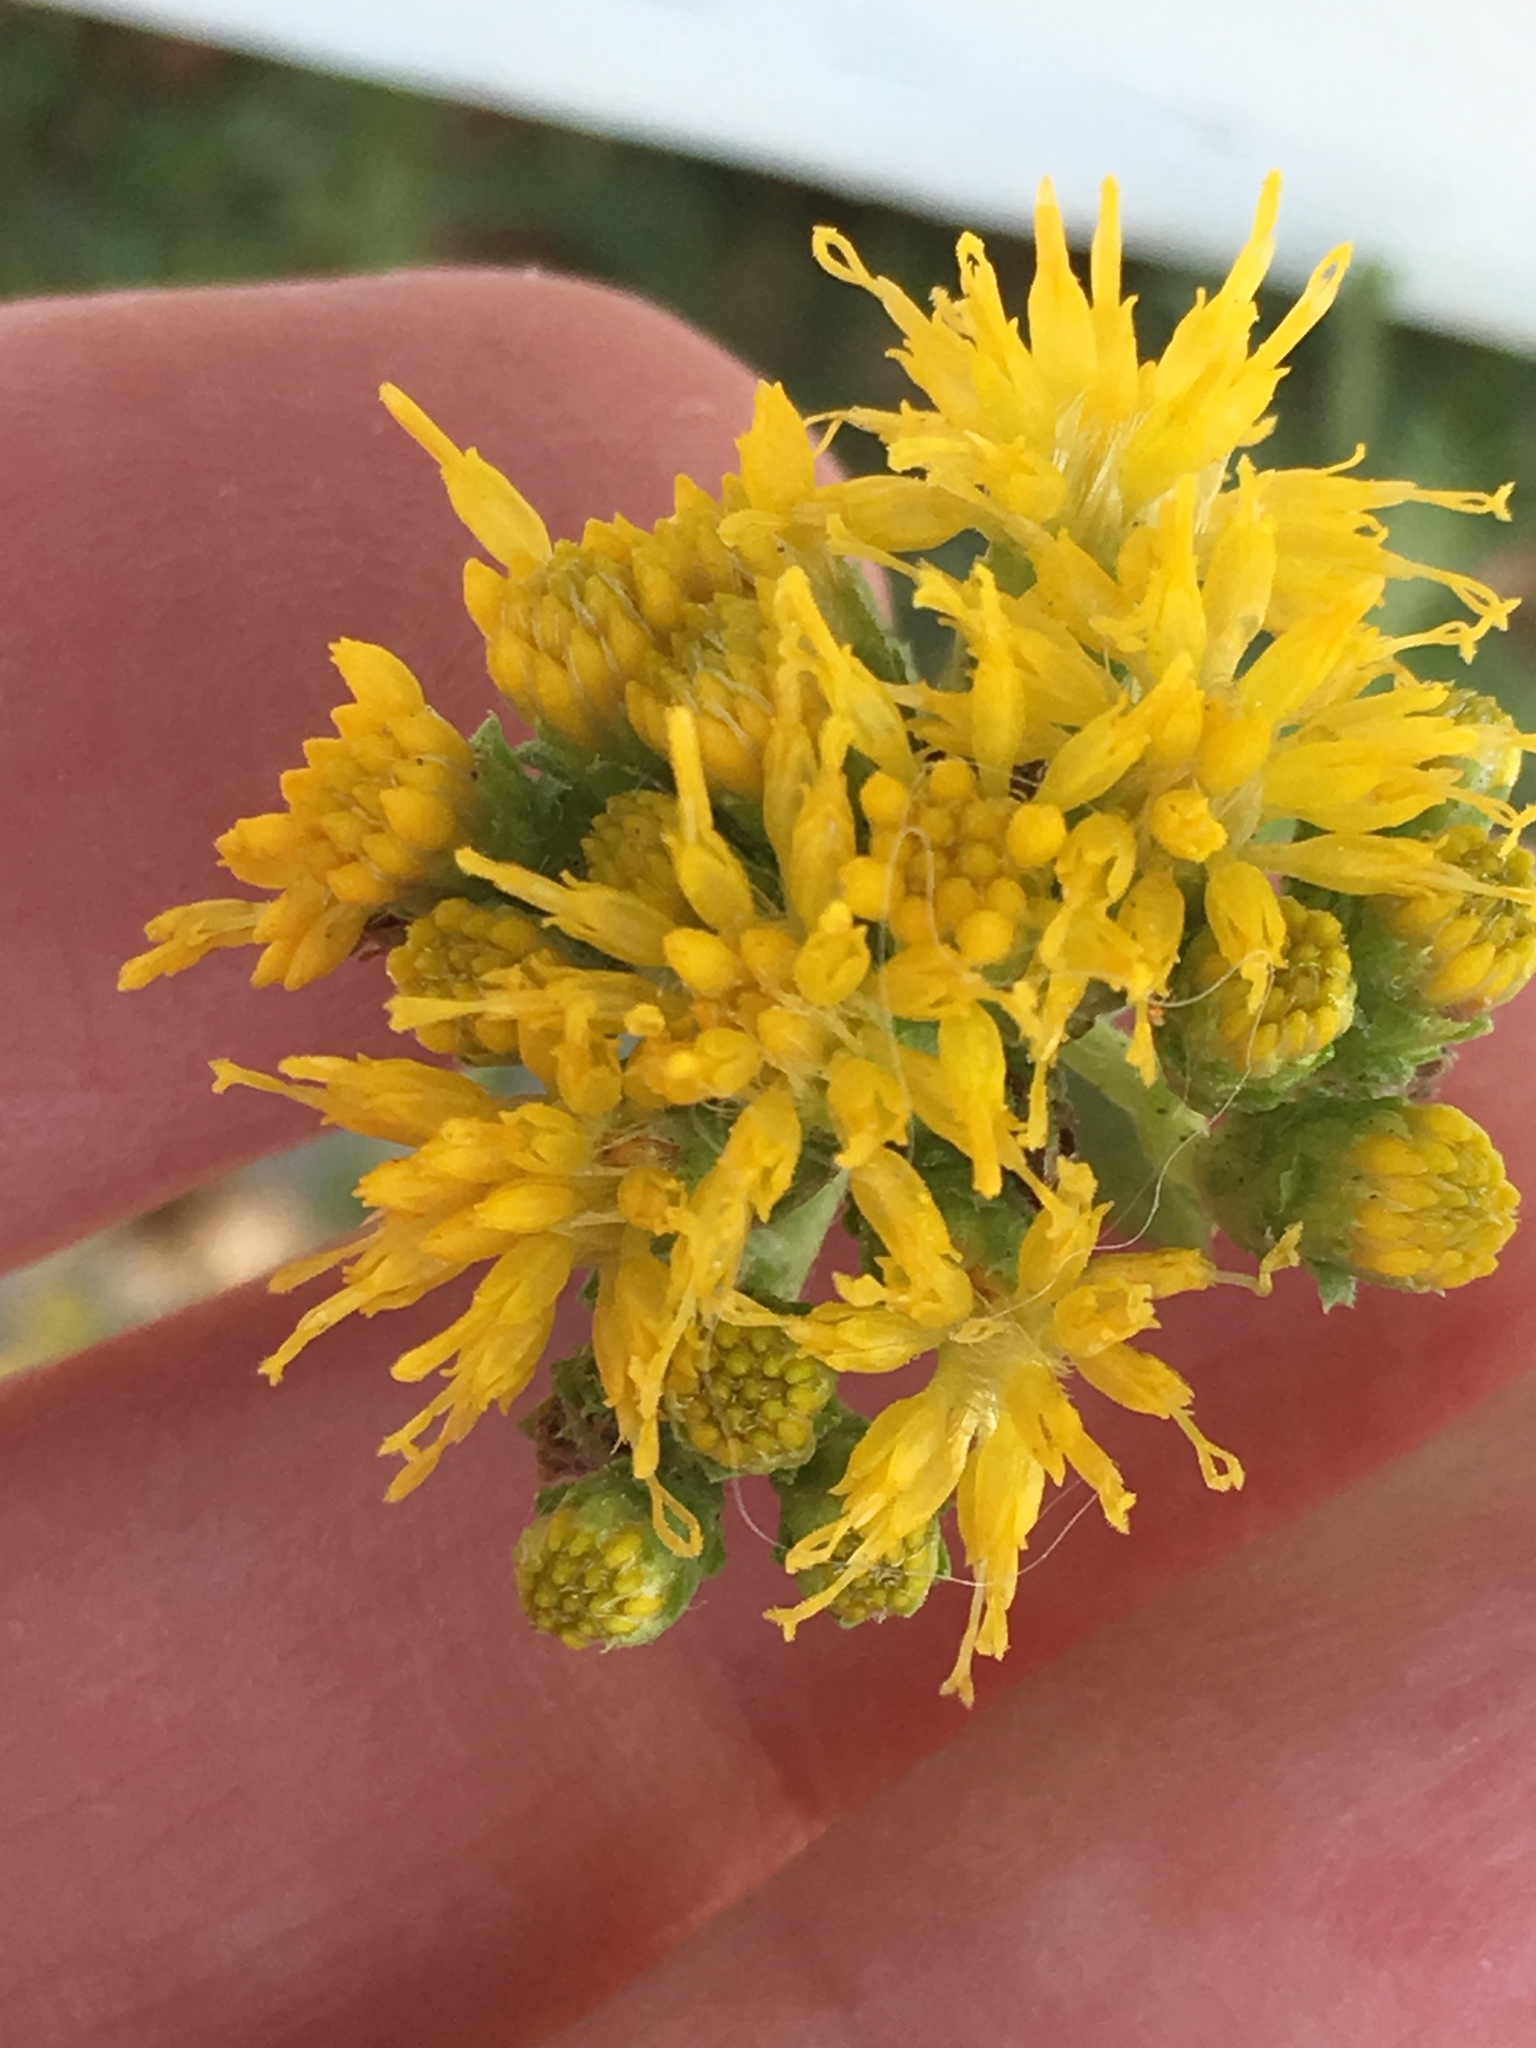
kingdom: Plantae
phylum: Tracheophyta
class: Magnoliopsida
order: Asterales
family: Asteraceae
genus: Isocoma
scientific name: Isocoma menziesii
